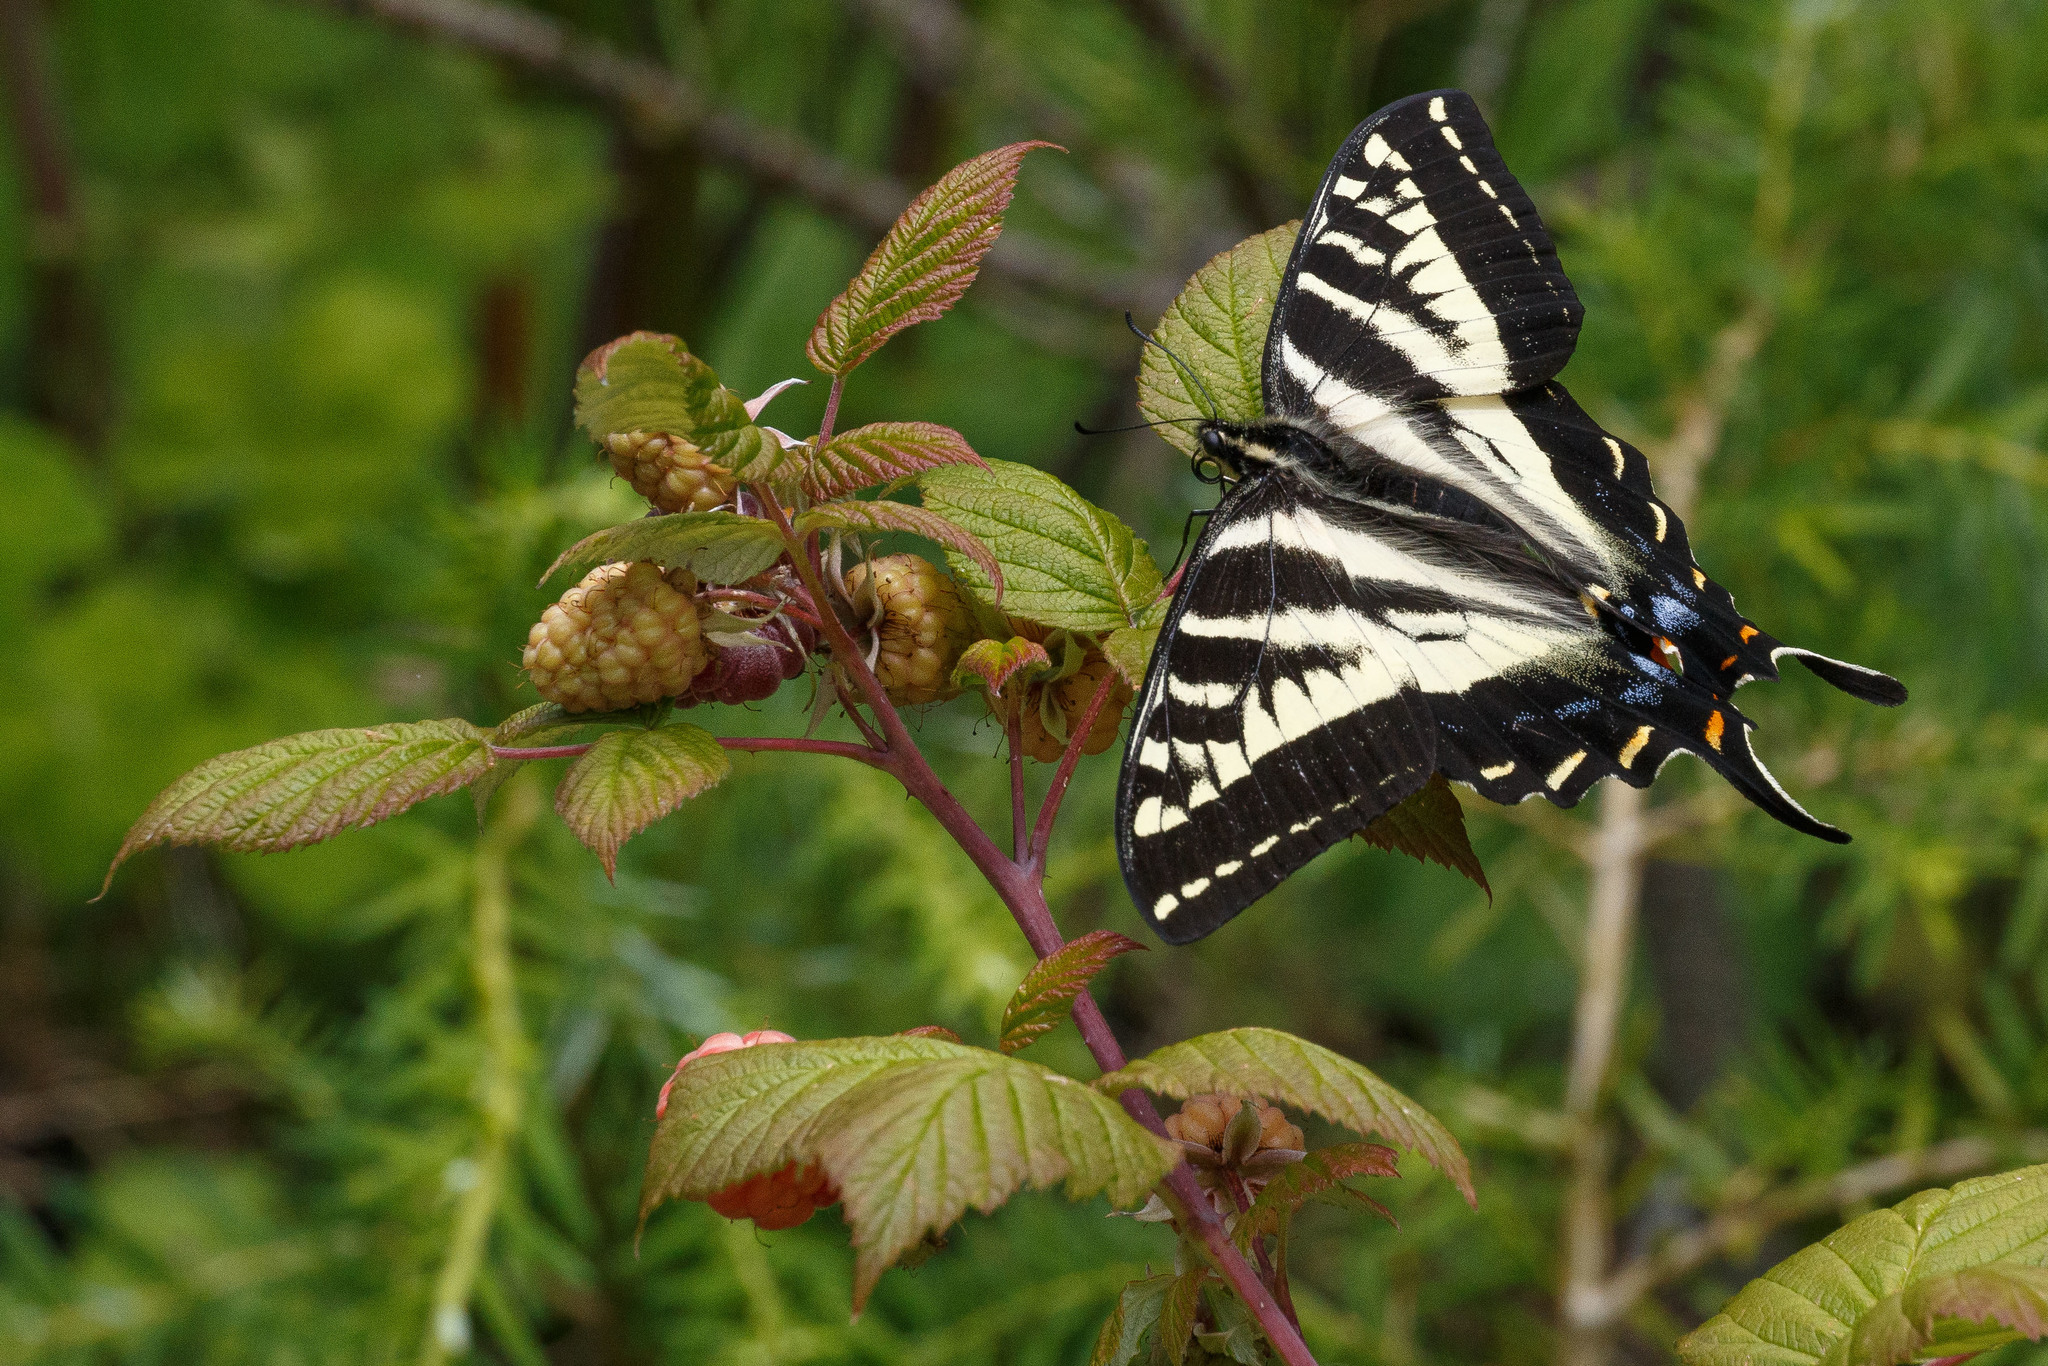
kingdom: Animalia
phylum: Arthropoda
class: Insecta
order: Lepidoptera
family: Papilionidae
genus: Papilio
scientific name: Papilio eurymedon
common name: Pale tiger swallowtail
